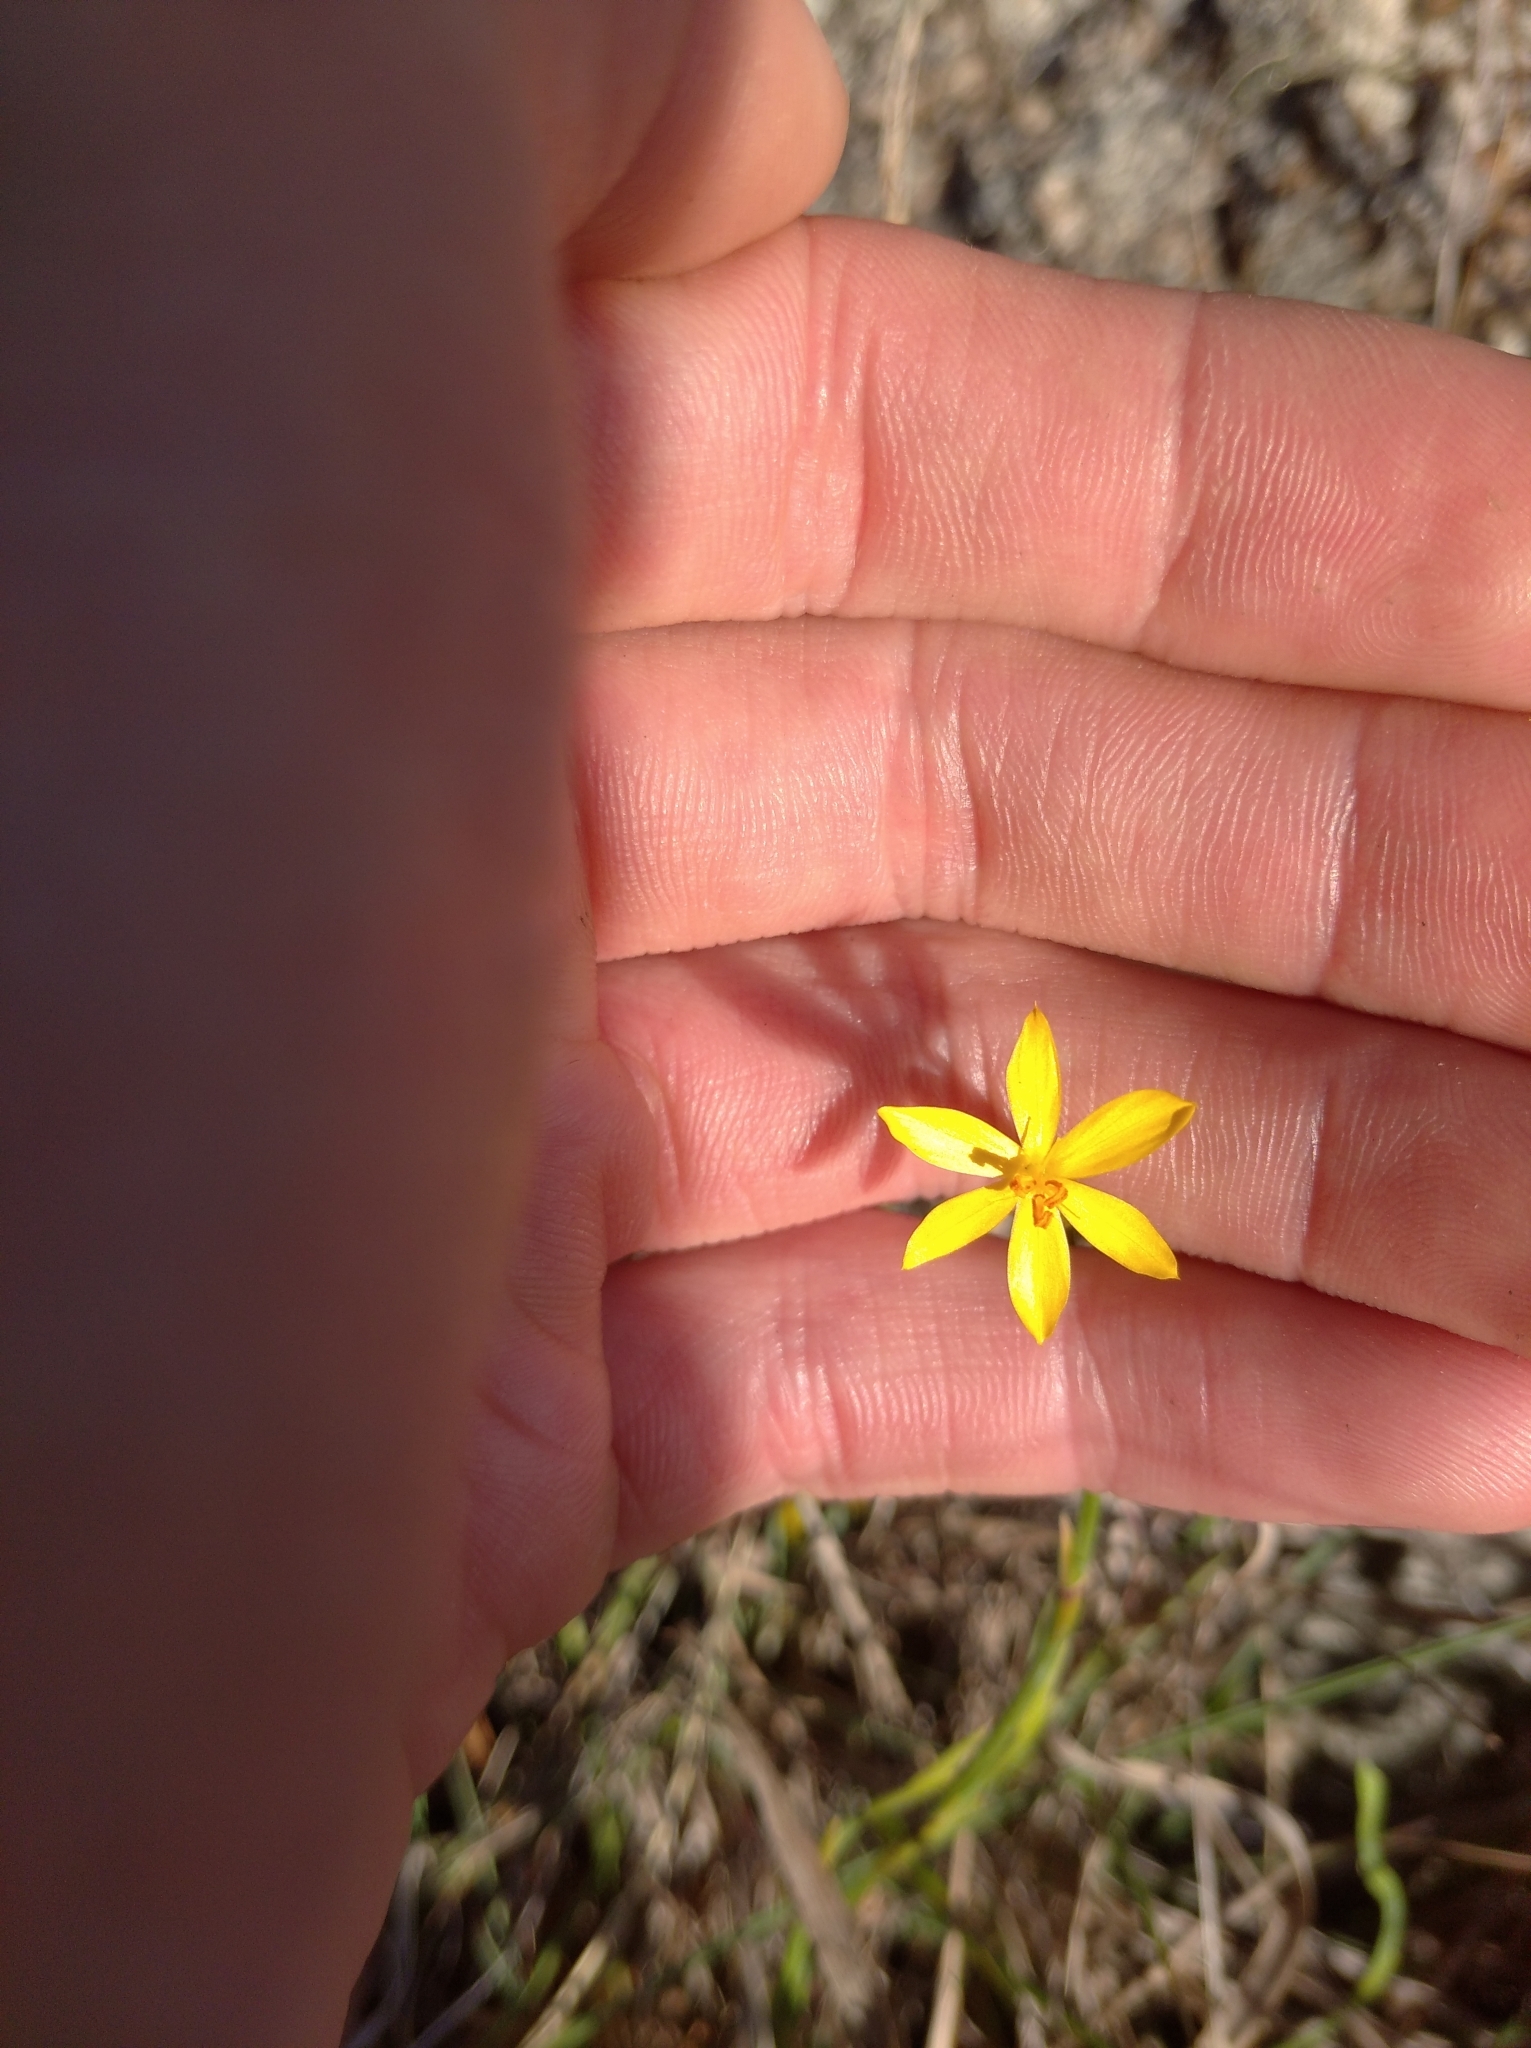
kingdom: Plantae
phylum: Tracheophyta
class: Liliopsida
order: Asparagales
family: Iridaceae
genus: Sisyrinchium
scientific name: Sisyrinchium vaginatum
